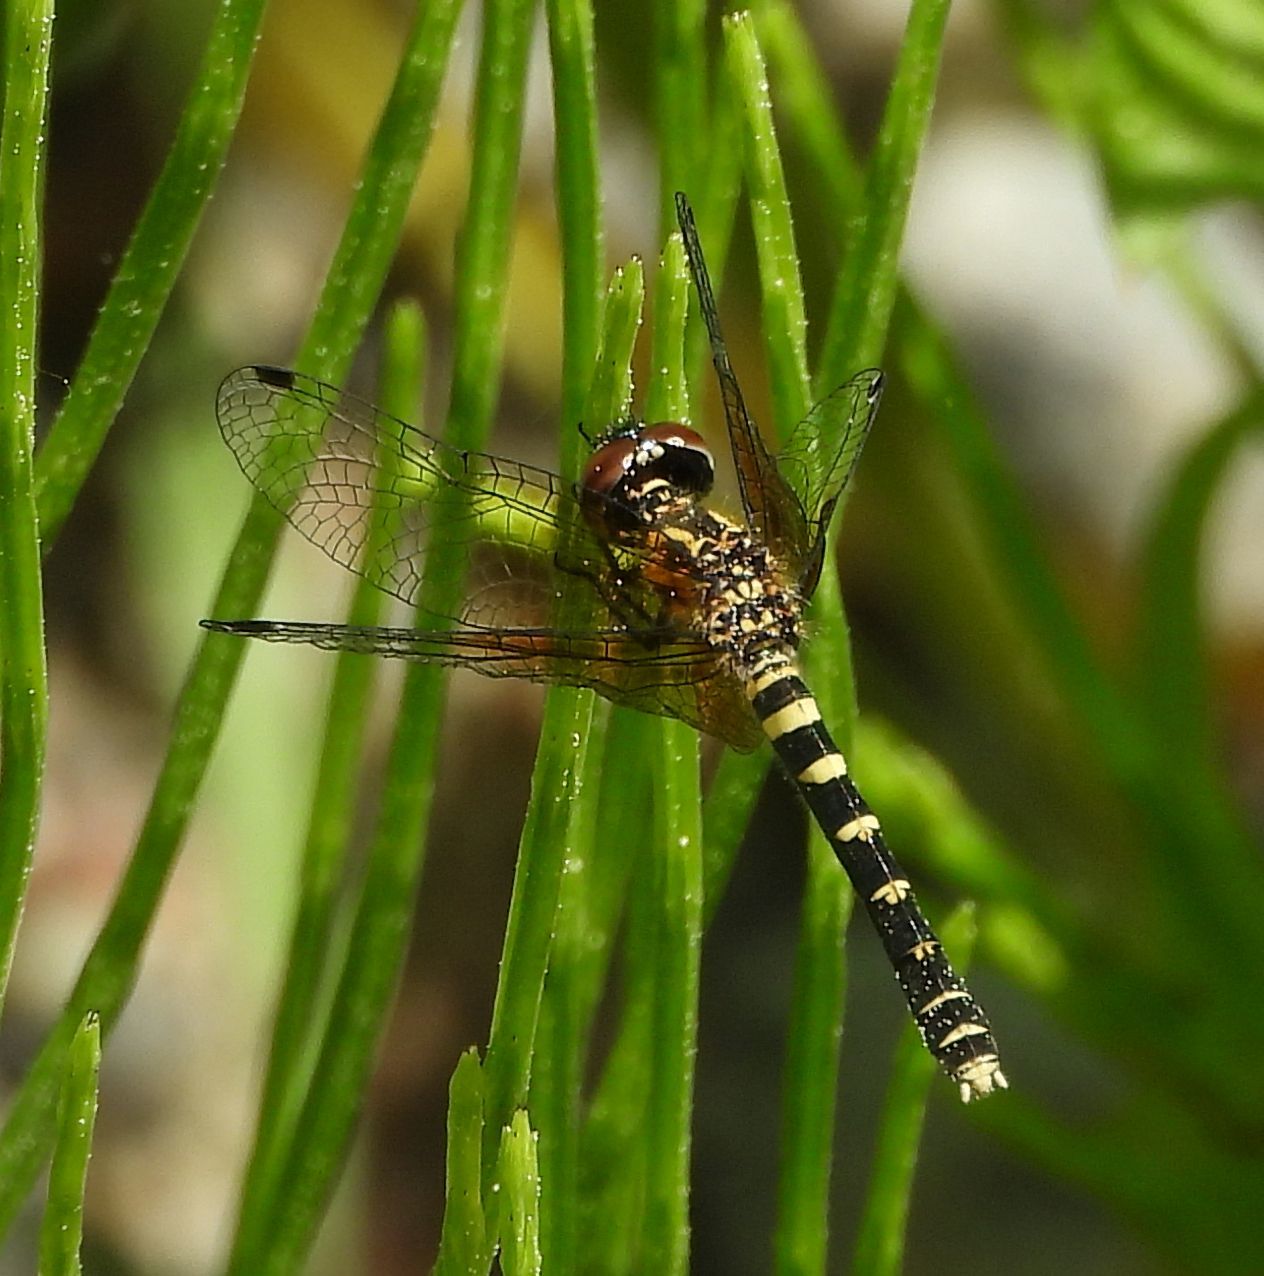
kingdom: Animalia
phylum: Arthropoda
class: Insecta
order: Odonata
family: Libellulidae
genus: Nannothemis
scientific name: Nannothemis bella
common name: Elfin skimmer
